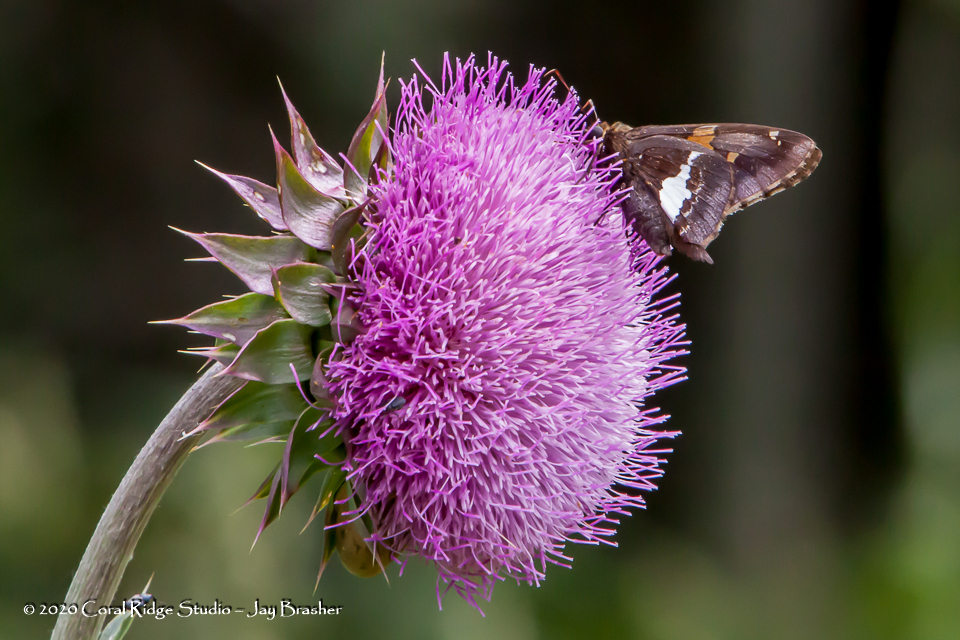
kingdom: Plantae
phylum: Tracheophyta
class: Magnoliopsida
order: Asterales
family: Asteraceae
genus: Carduus
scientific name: Carduus nutans
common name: Musk thistle
